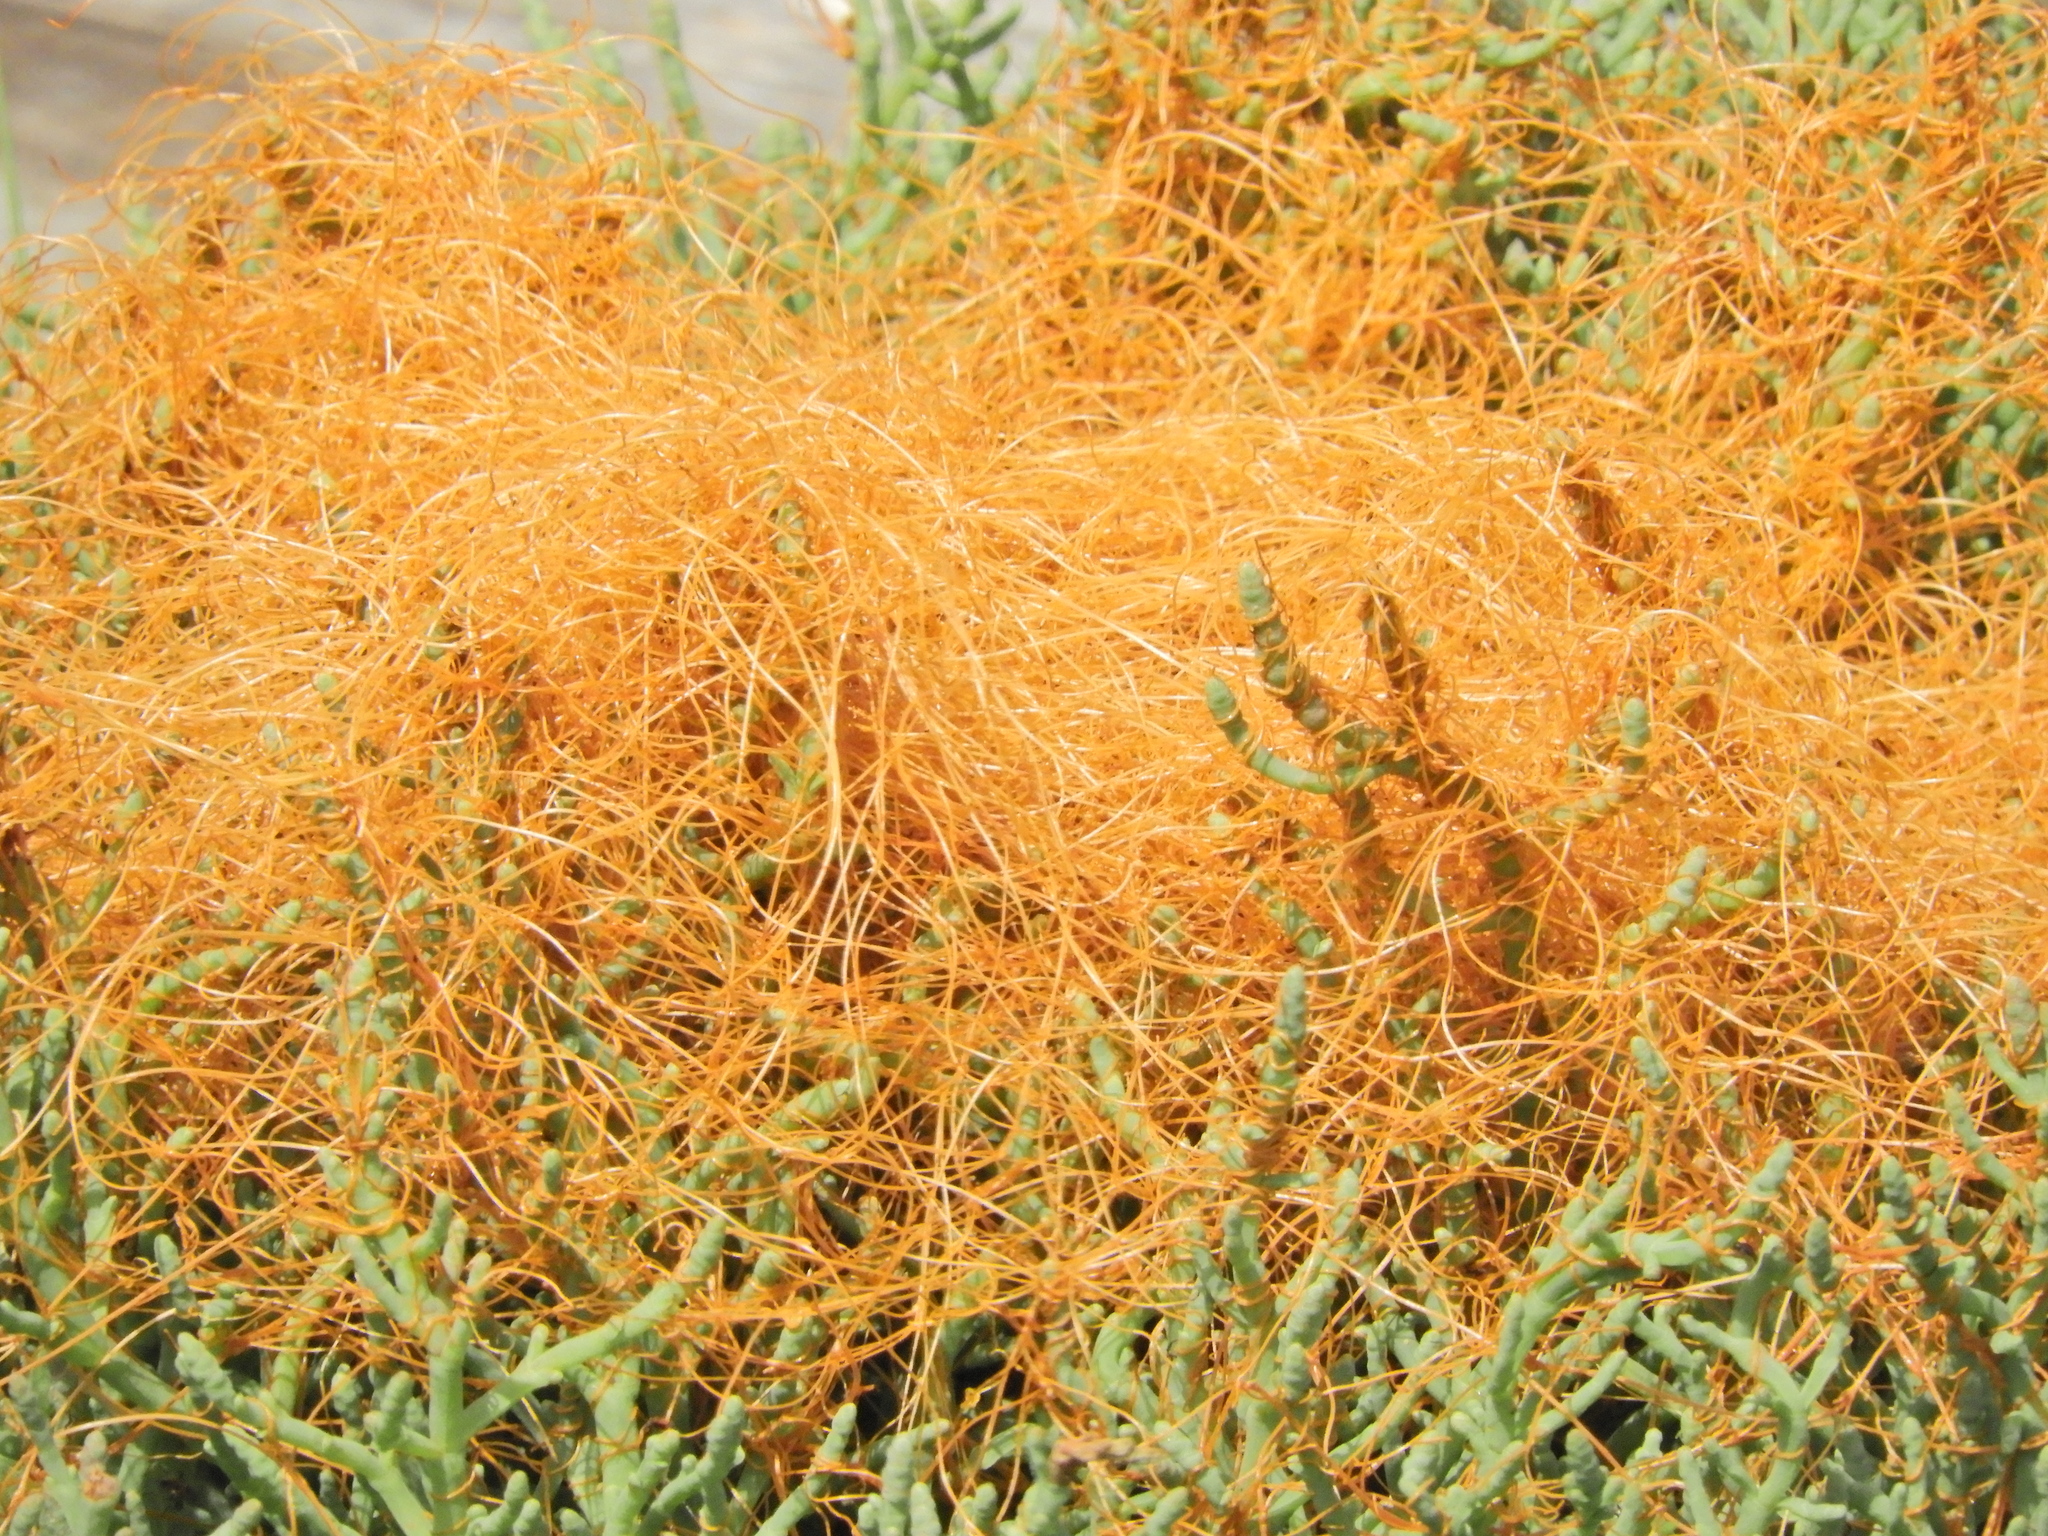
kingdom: Plantae
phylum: Tracheophyta
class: Magnoliopsida
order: Solanales
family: Convolvulaceae
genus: Cuscuta
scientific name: Cuscuta pacifica
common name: Large saltmarsh dodder
